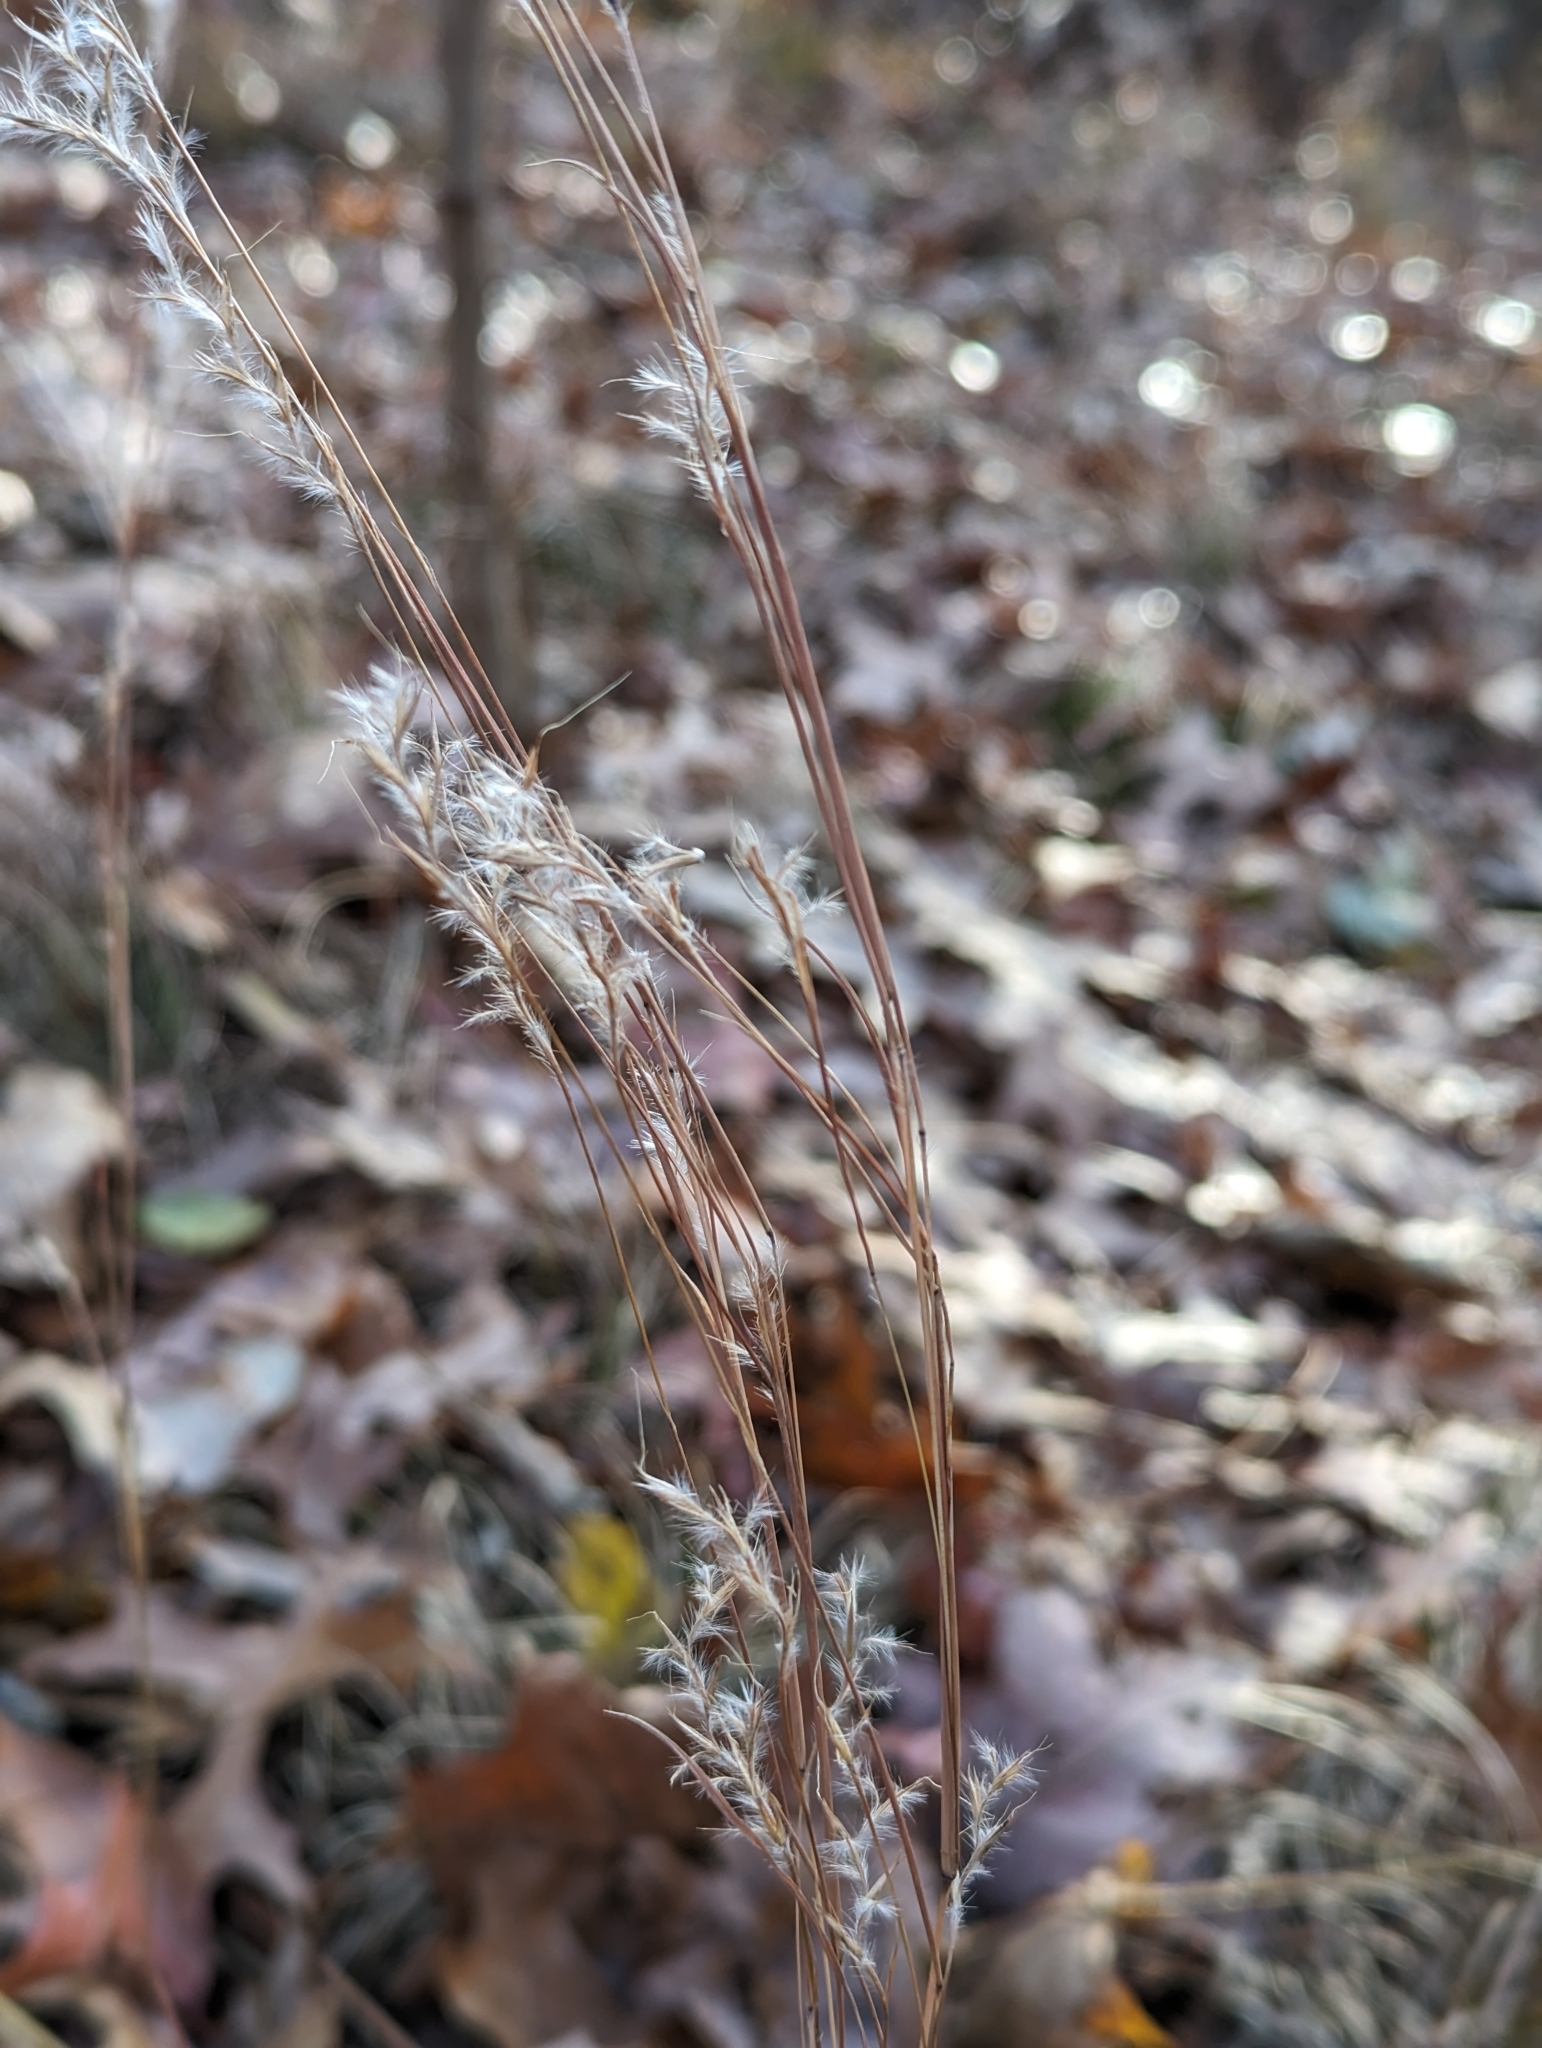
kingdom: Plantae
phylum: Tracheophyta
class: Liliopsida
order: Poales
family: Poaceae
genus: Schizachyrium
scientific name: Schizachyrium scoparium
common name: Little bluestem
